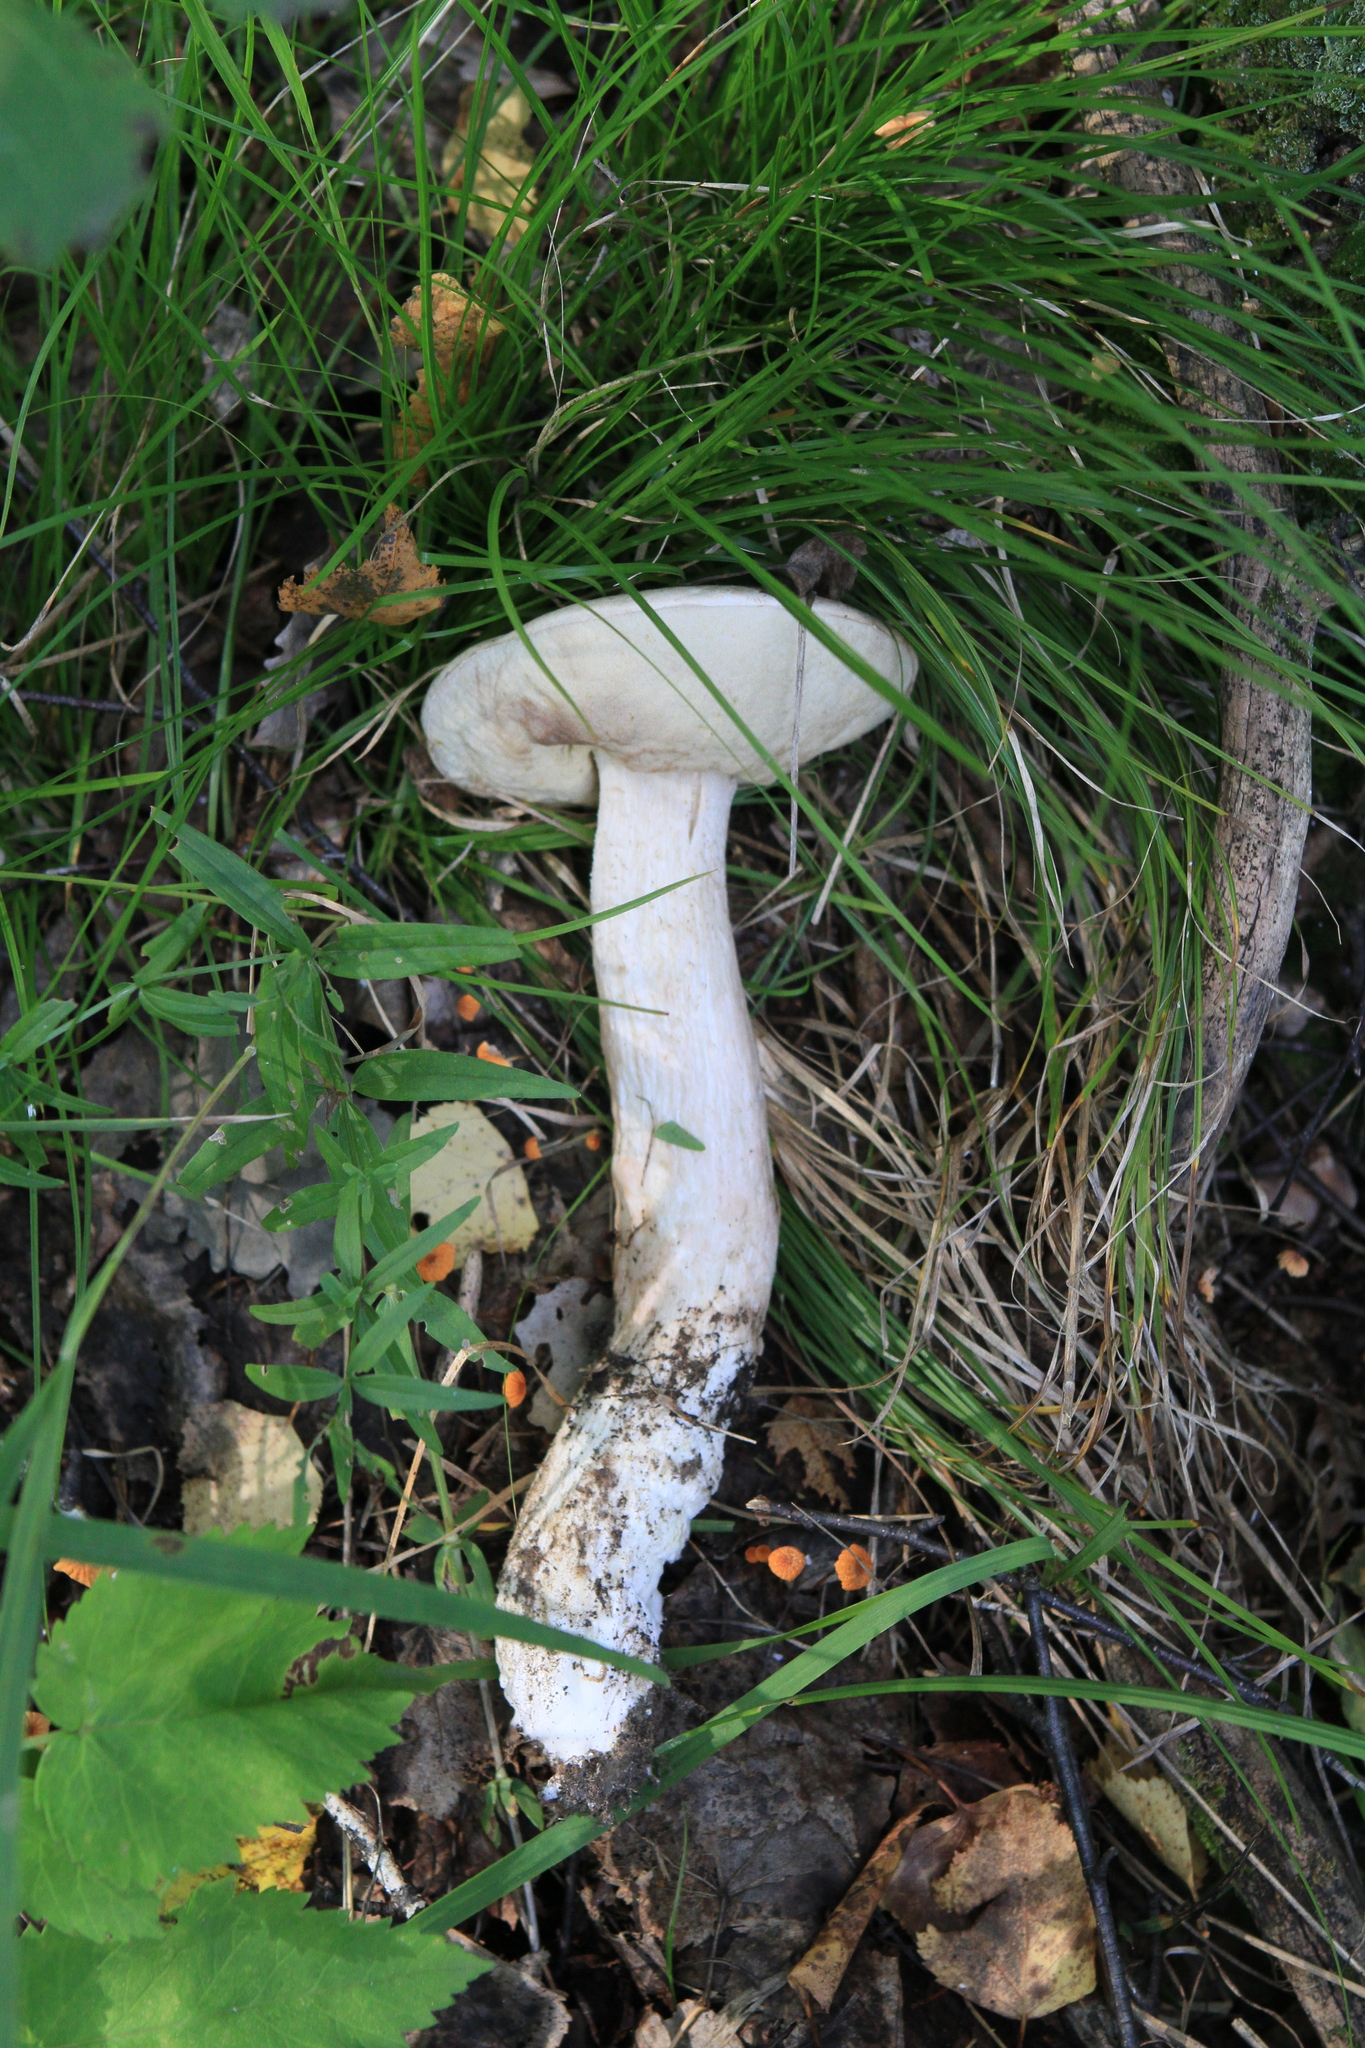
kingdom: Fungi
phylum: Basidiomycota
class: Agaricomycetes
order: Boletales
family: Boletaceae
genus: Leccinum
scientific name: Leccinum versipelle
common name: Orange birch bolete
